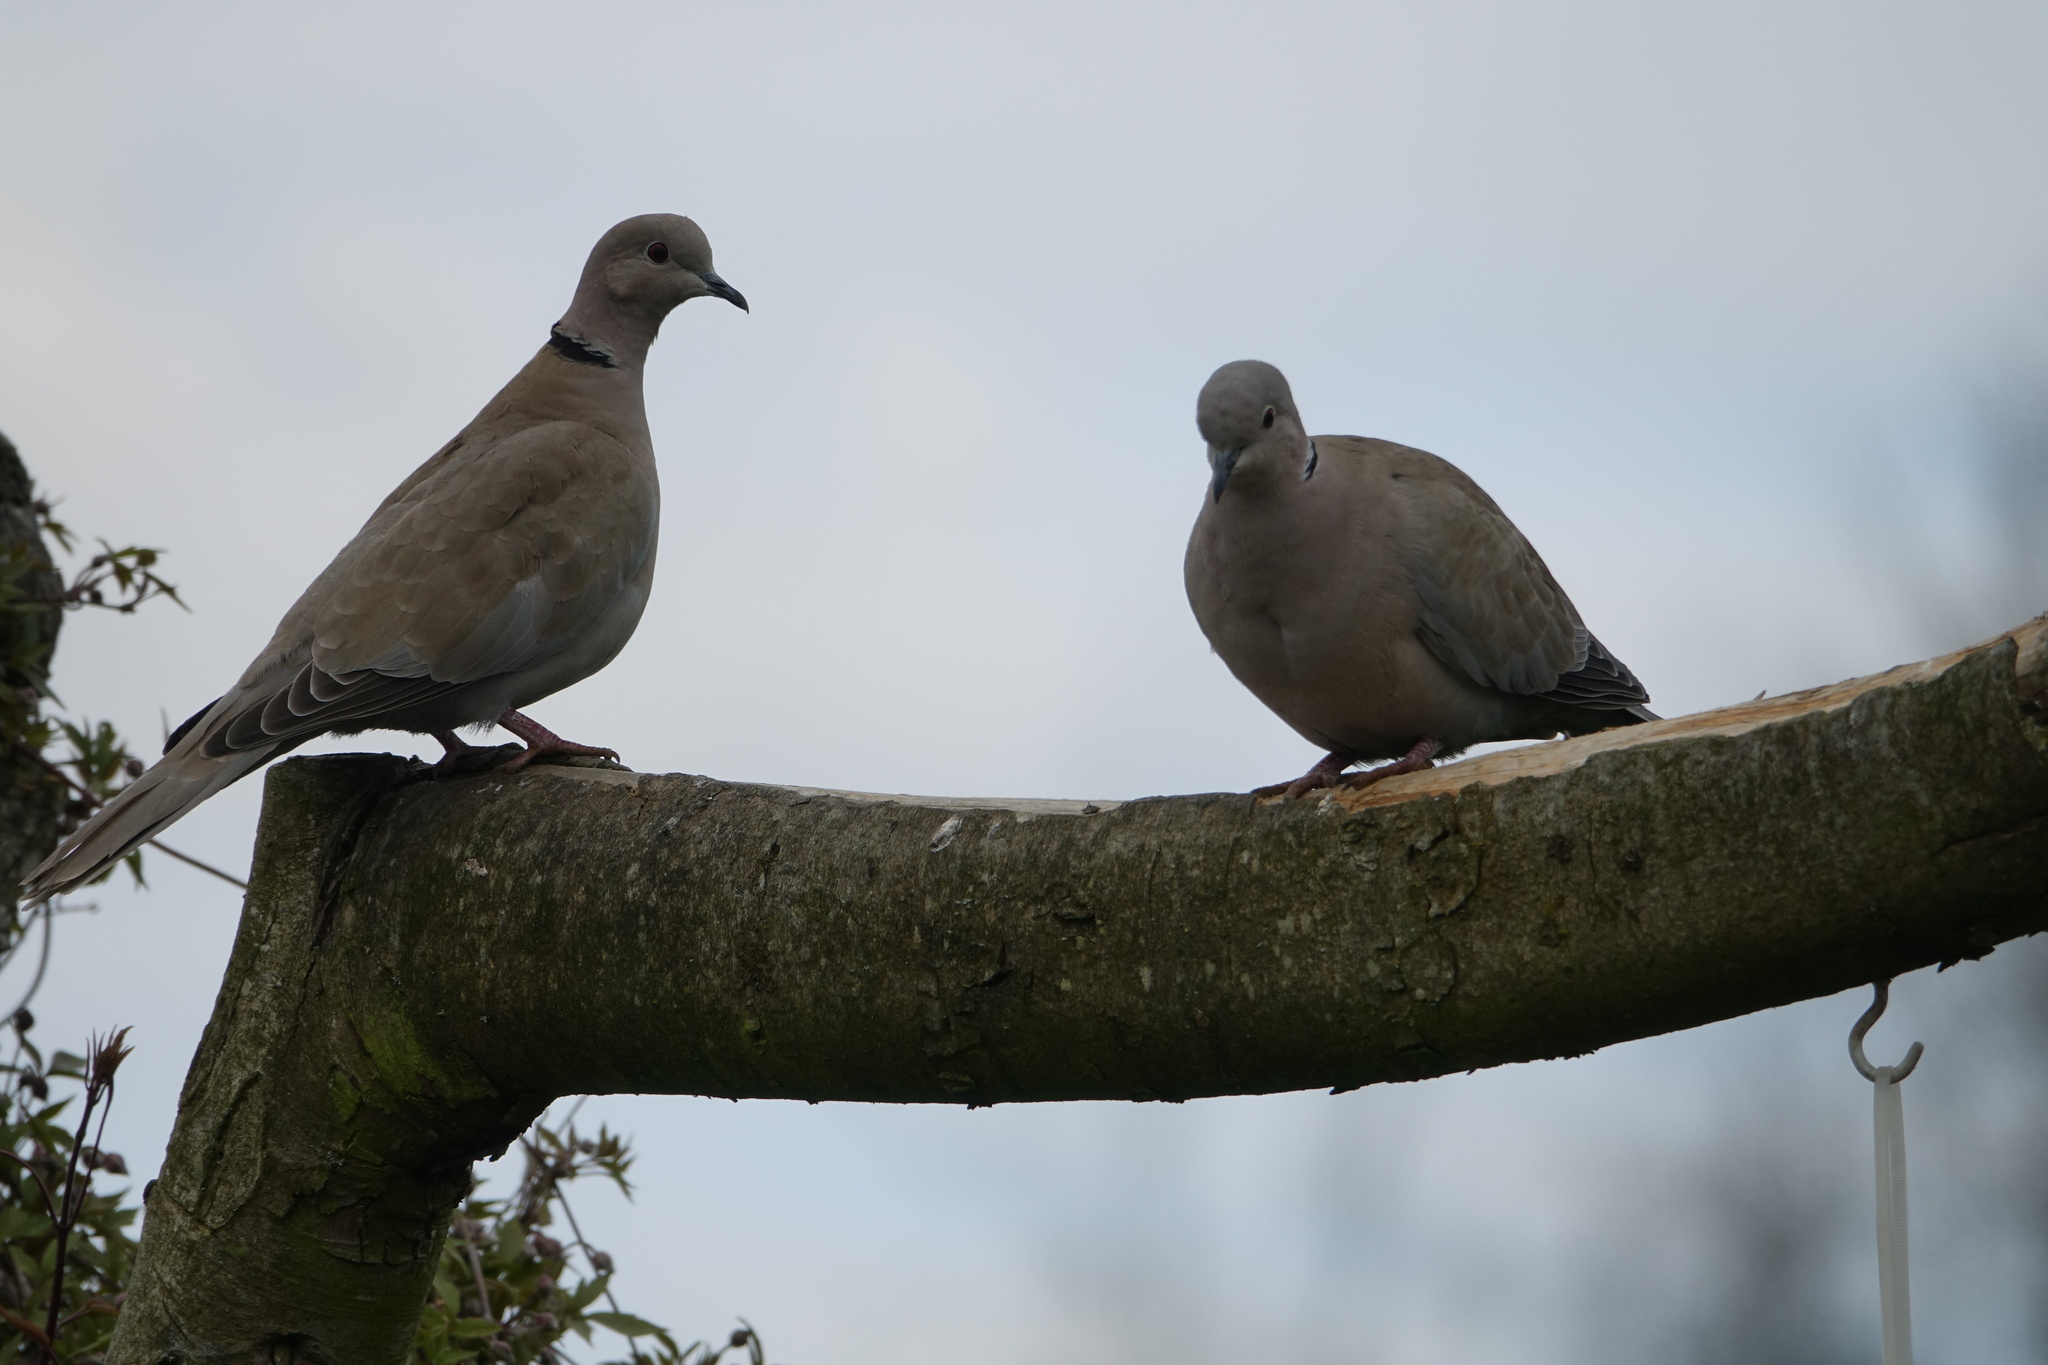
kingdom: Animalia
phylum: Chordata
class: Aves
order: Columbiformes
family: Columbidae
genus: Streptopelia
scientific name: Streptopelia decaocto
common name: Eurasian collared dove
